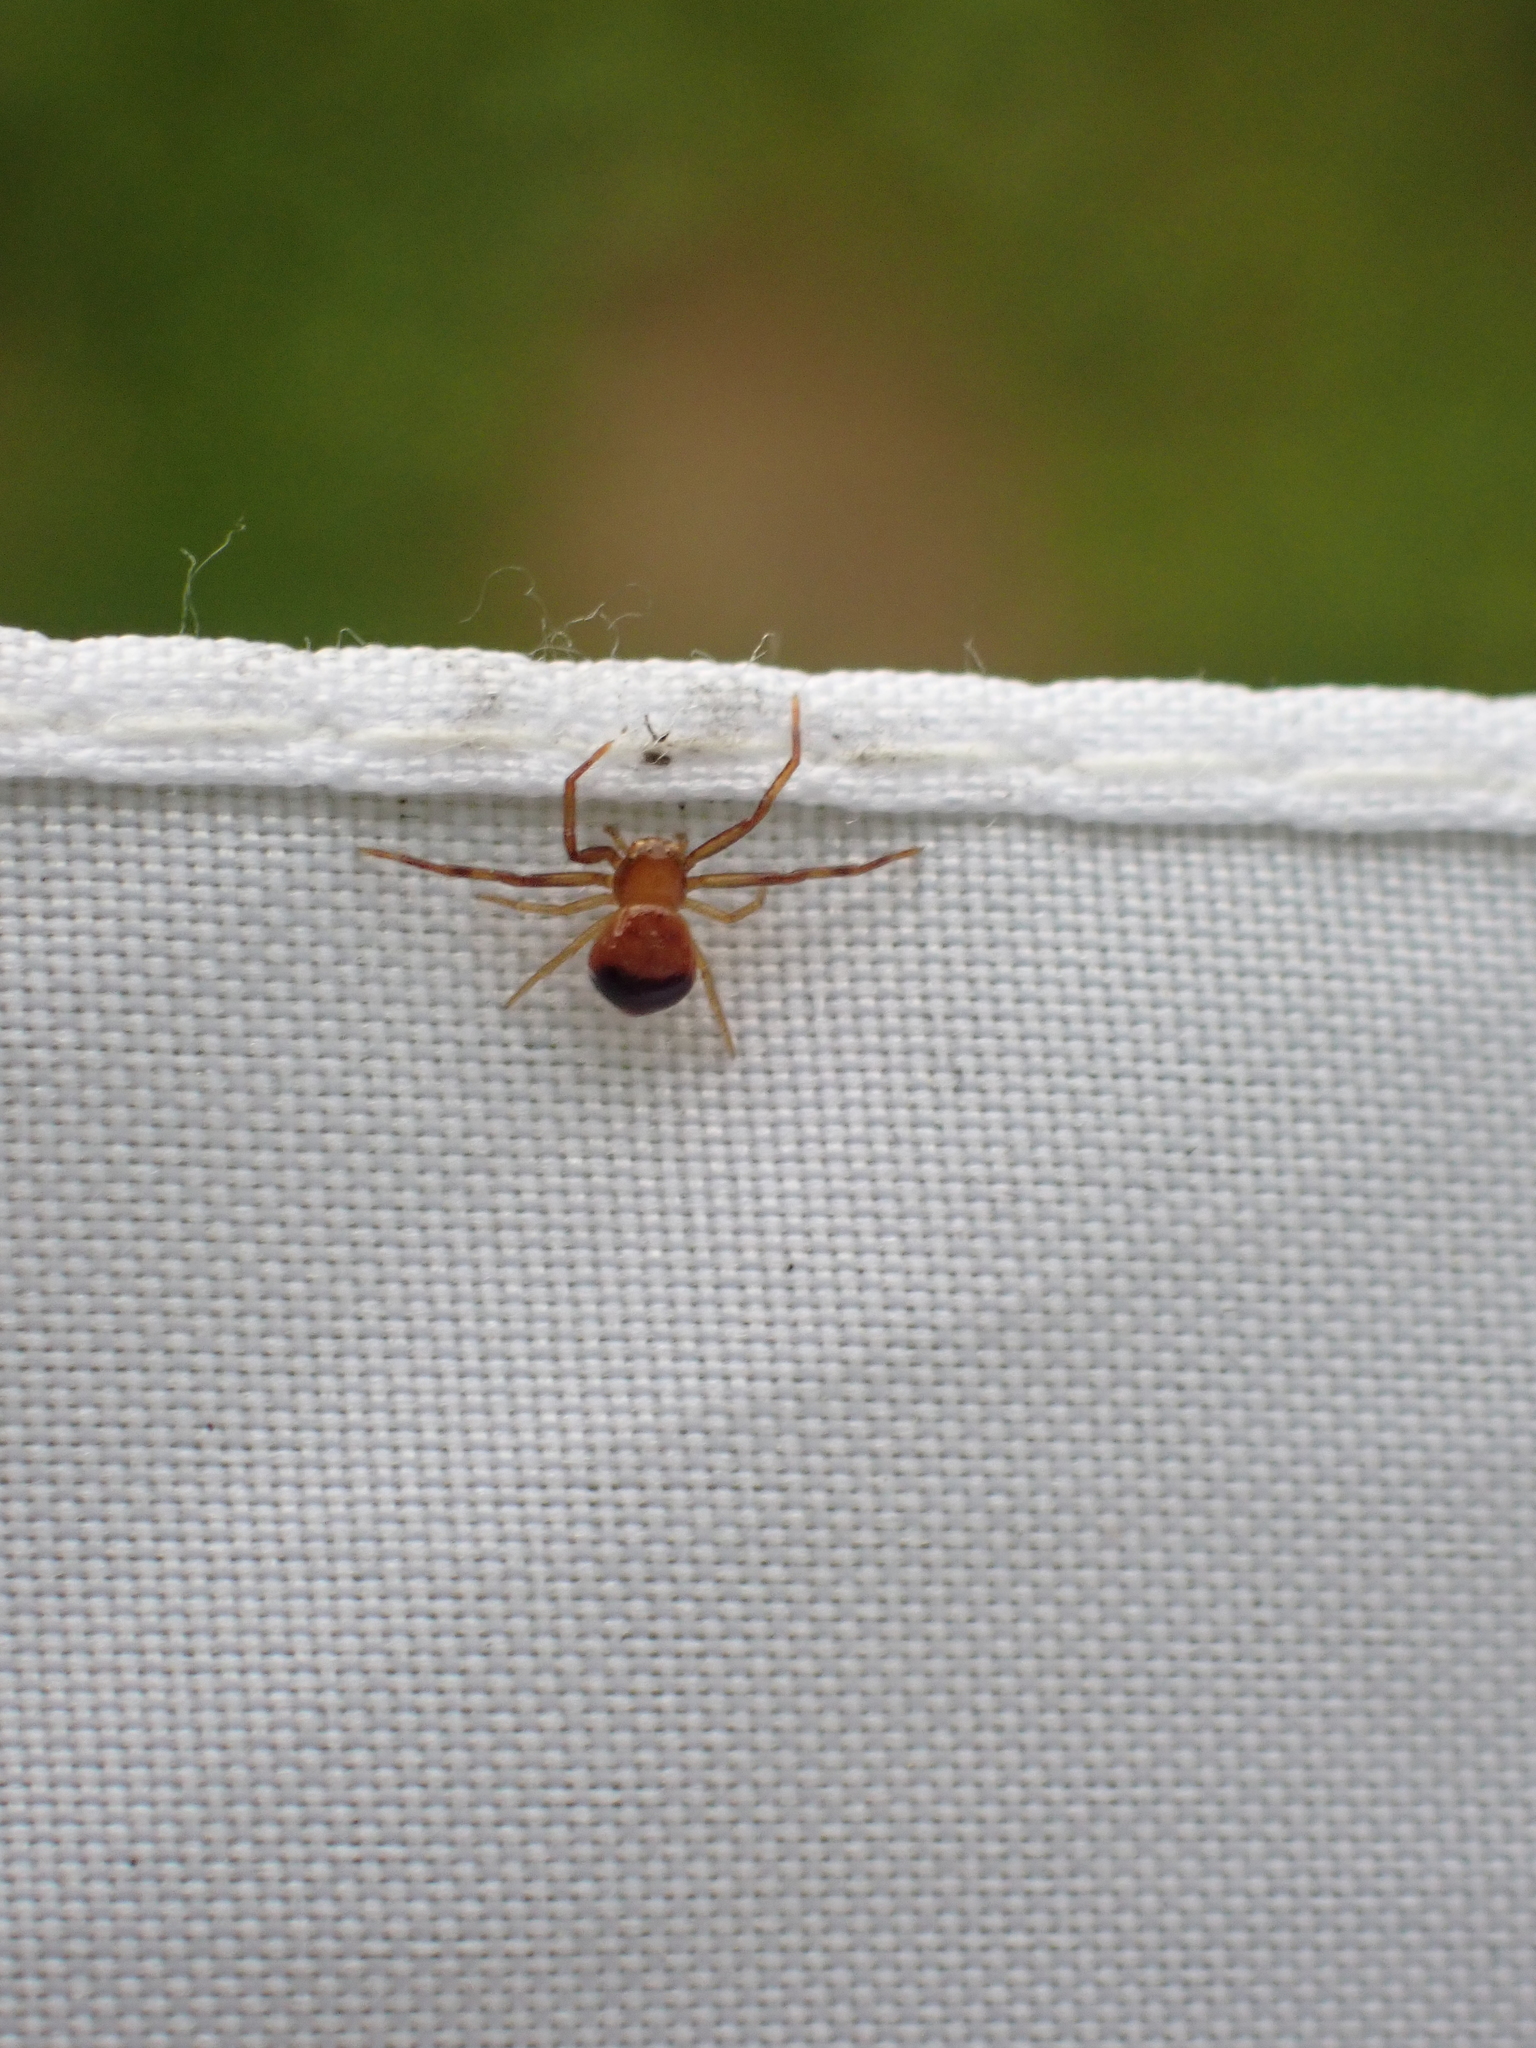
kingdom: Animalia
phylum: Arthropoda
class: Arachnida
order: Araneae
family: Thomisidae
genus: Synema
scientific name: Synema parvulum
